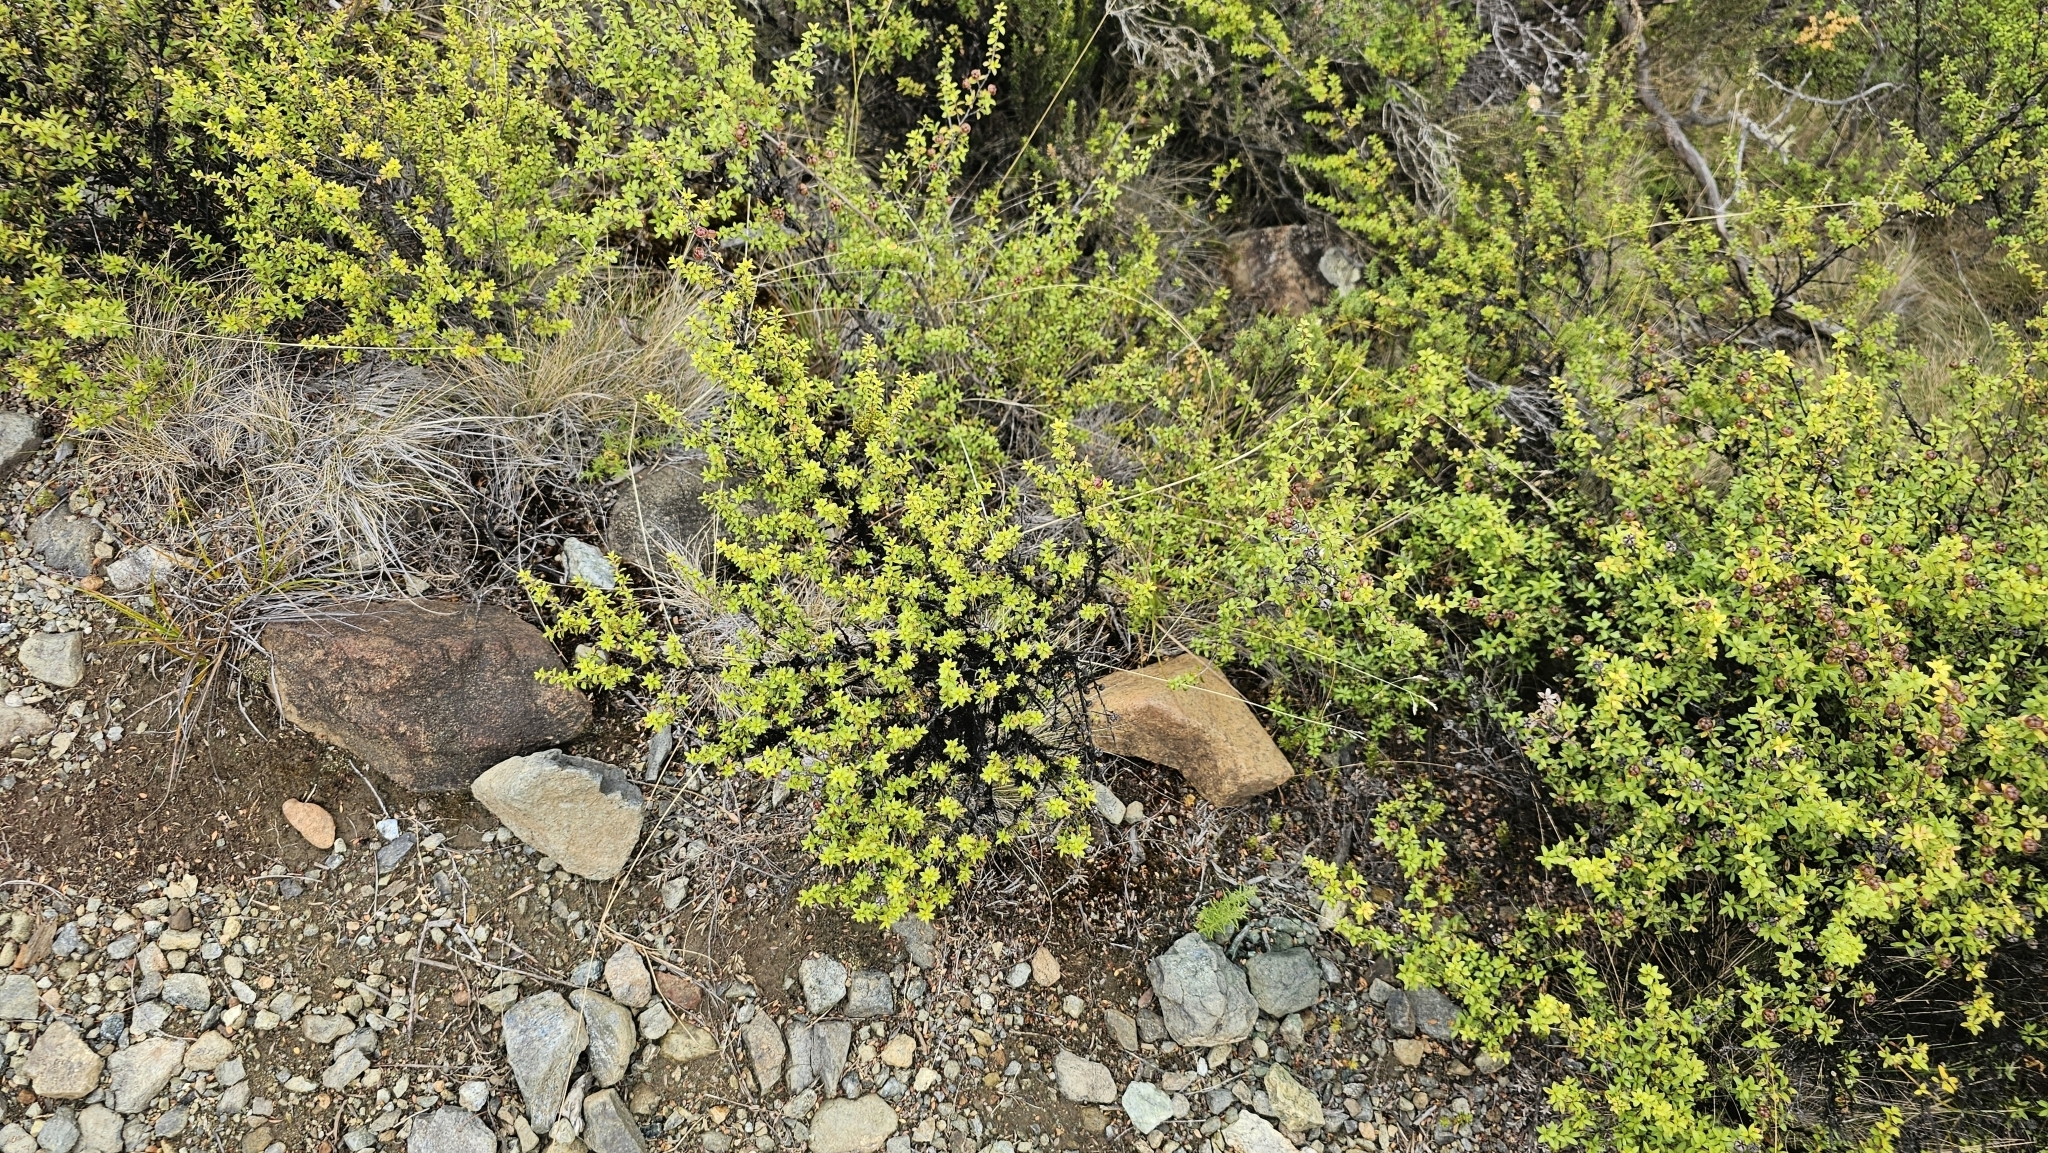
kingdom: Plantae
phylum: Tracheophyta
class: Magnoliopsida
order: Santalales
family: Viscaceae
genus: Korthalsella
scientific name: Korthalsella salicornioides
